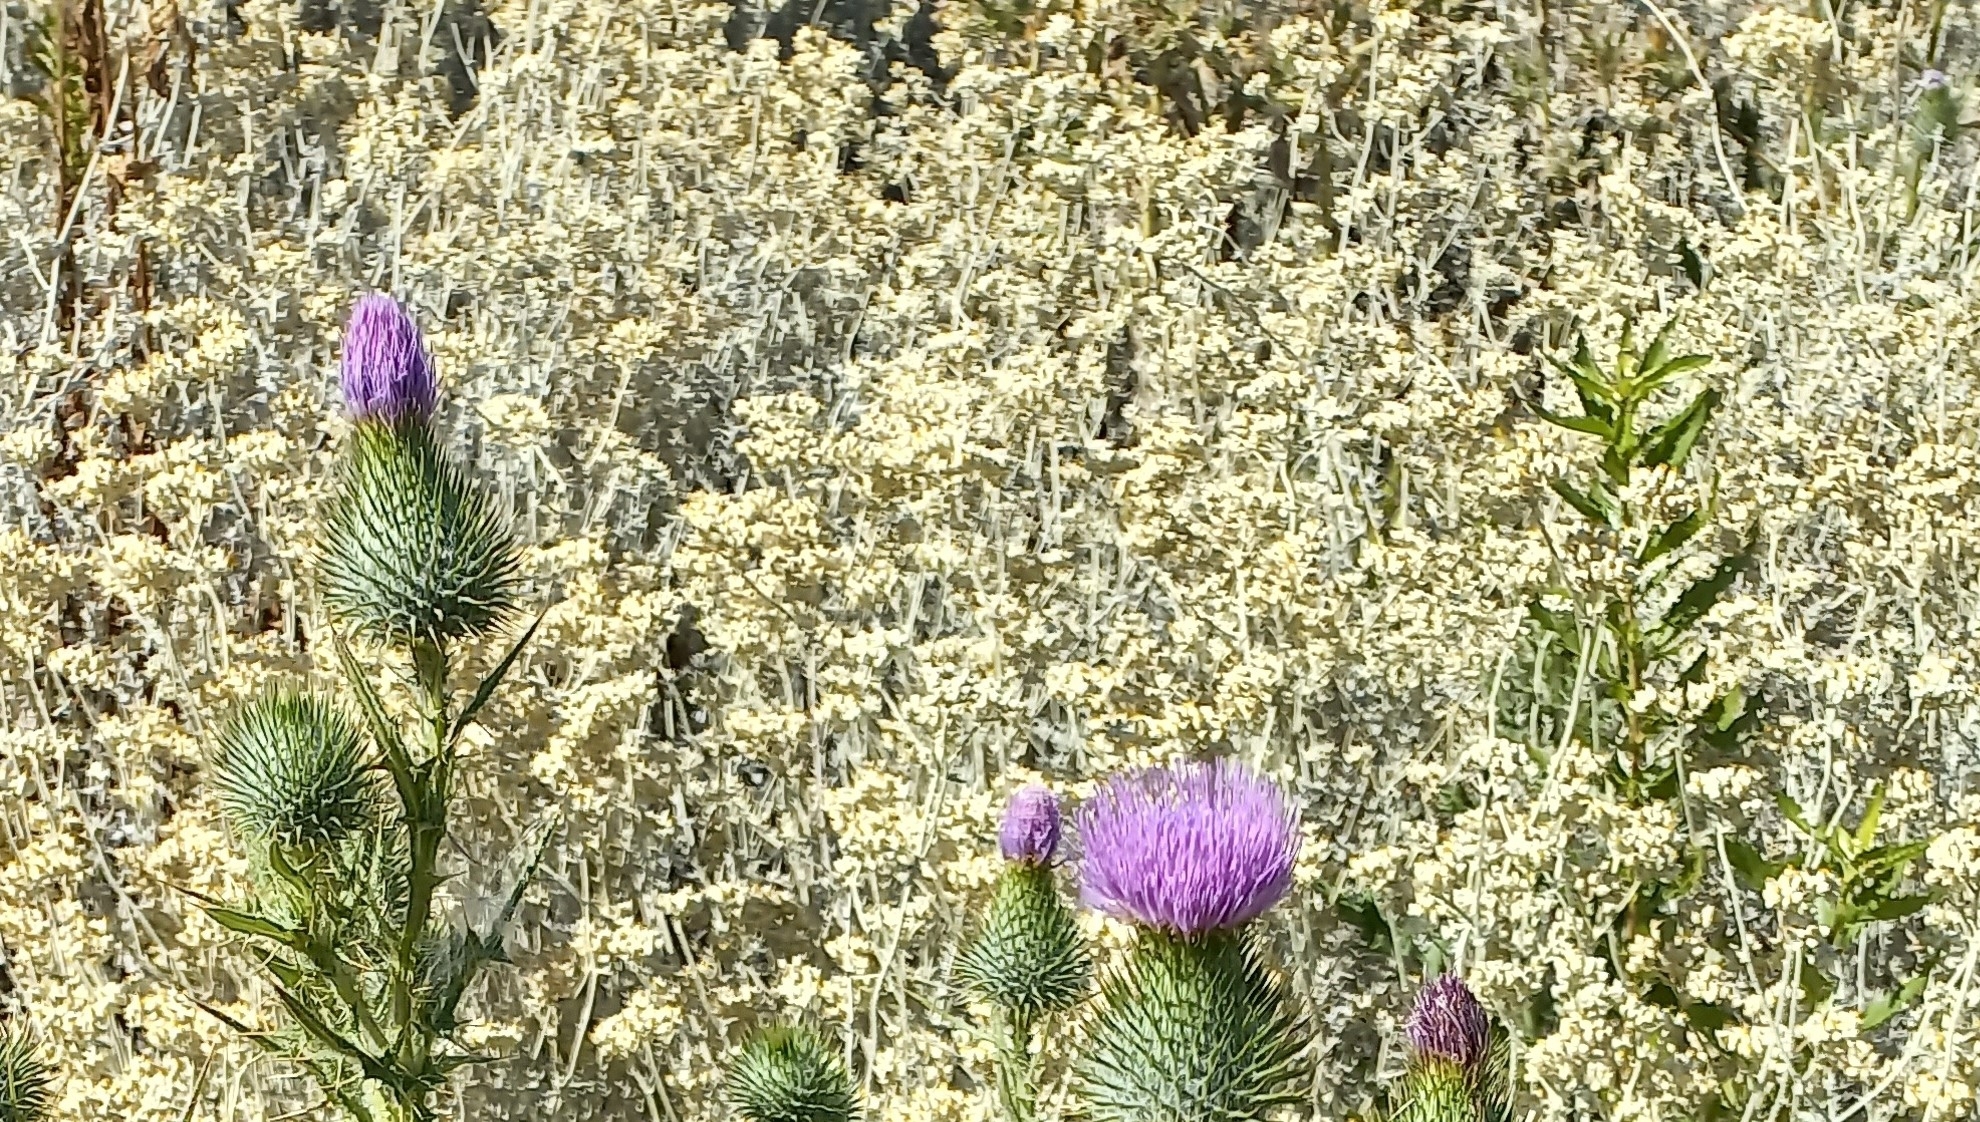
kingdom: Plantae
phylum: Tracheophyta
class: Magnoliopsida
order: Asterales
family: Asteraceae
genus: Helichrysum
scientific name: Helichrysum patulum
